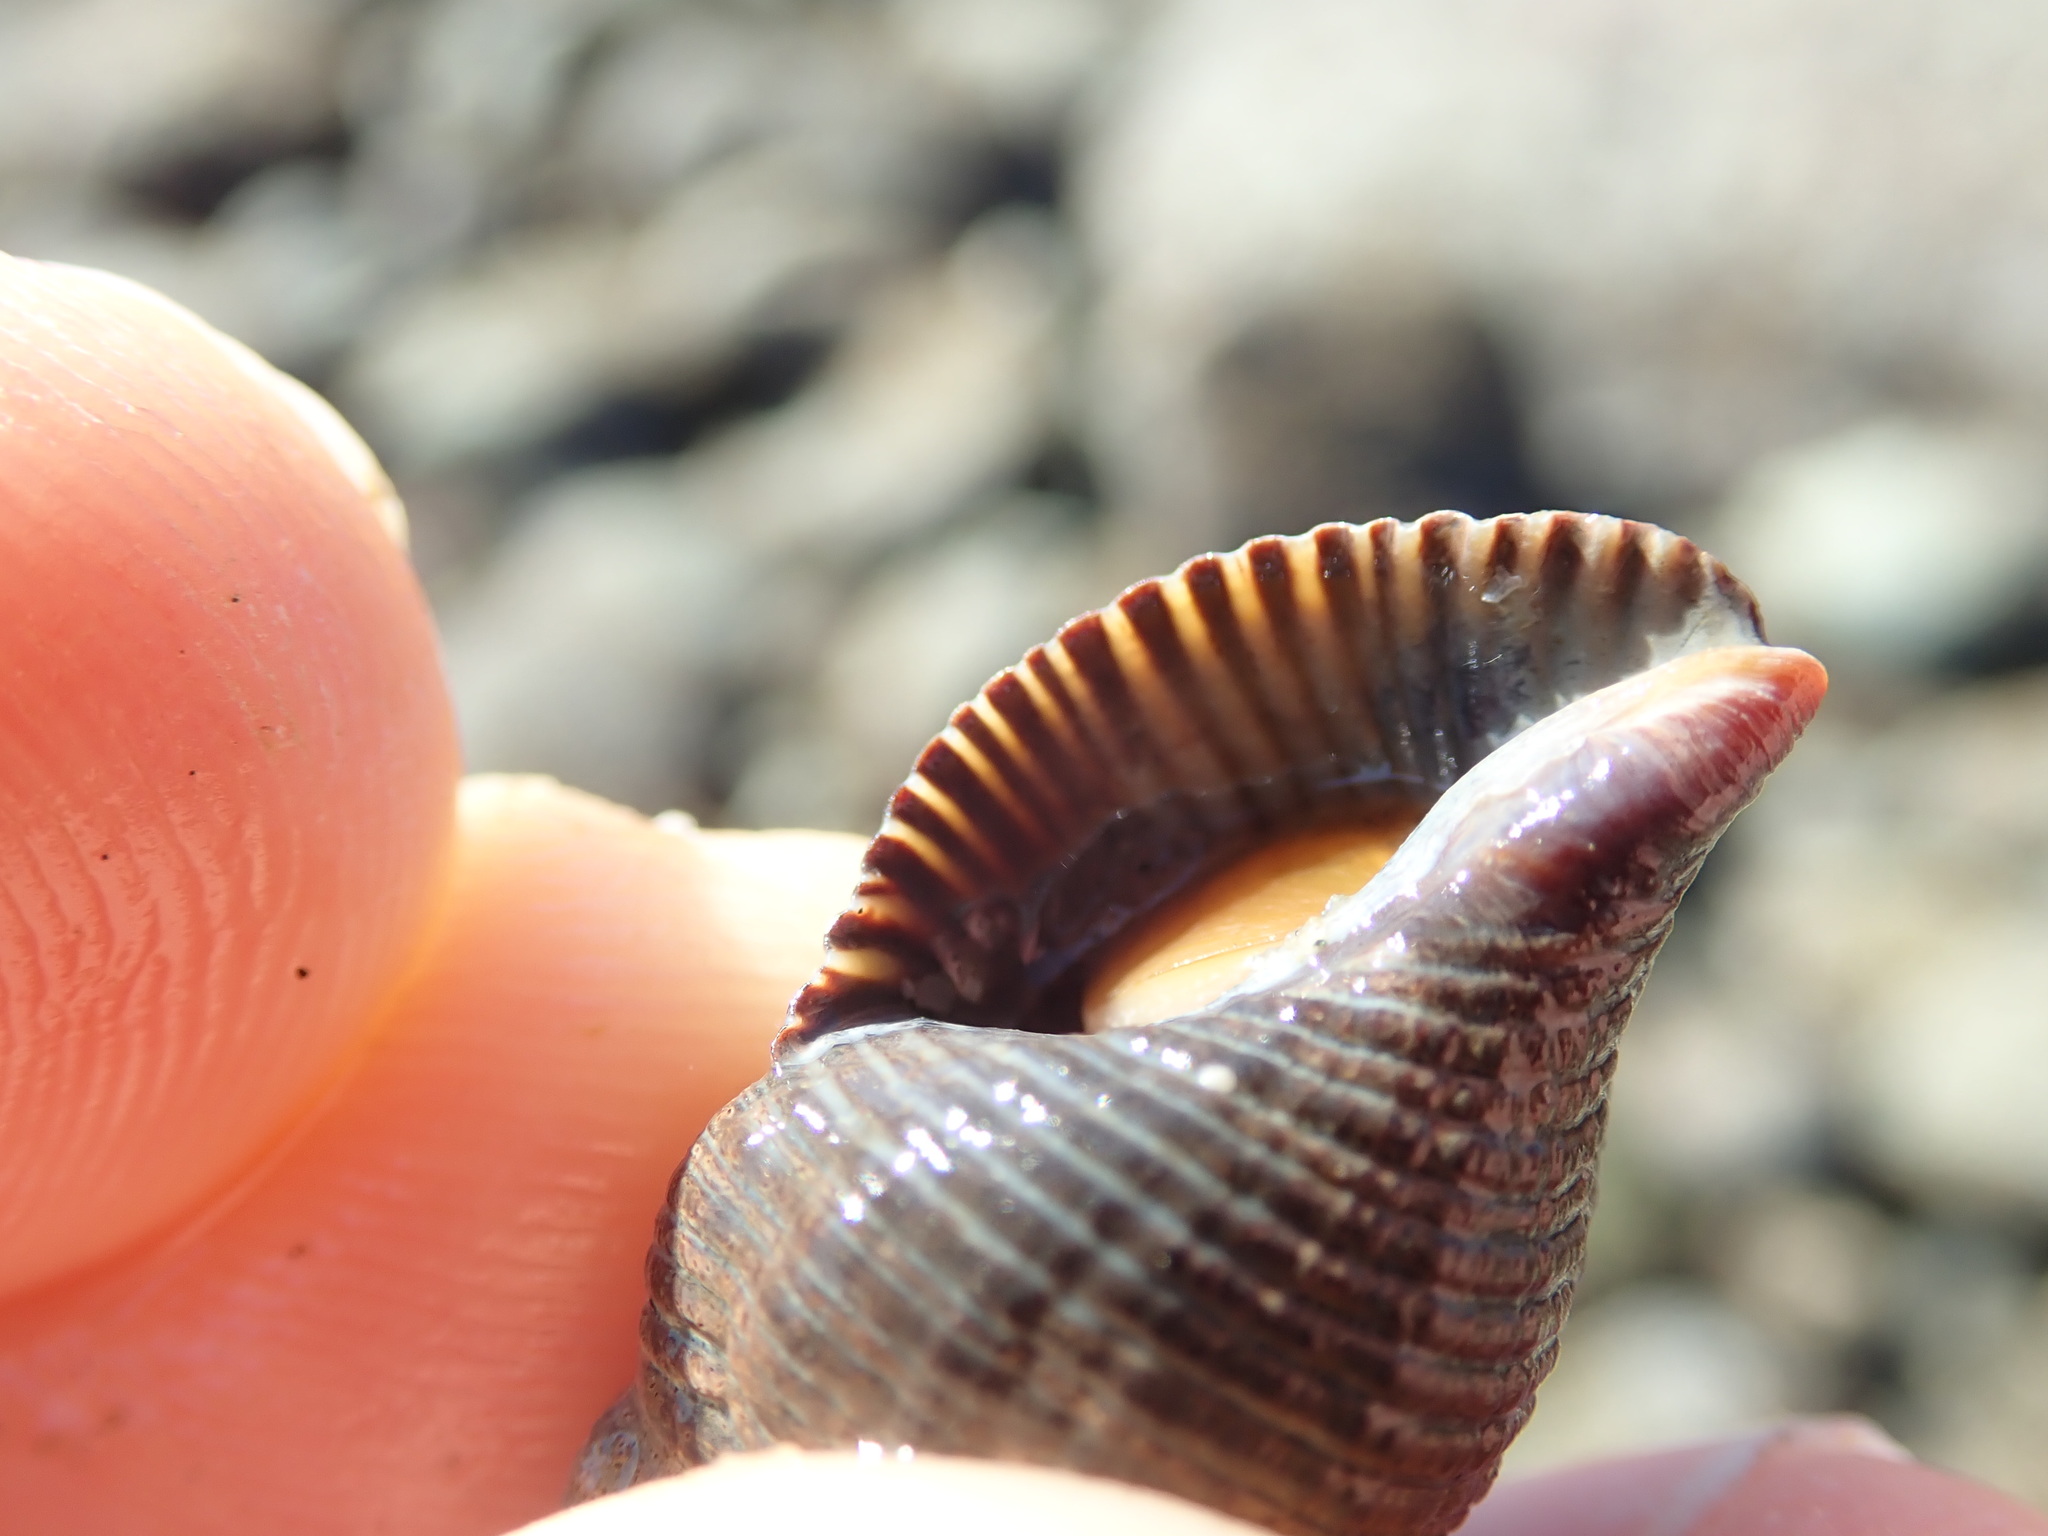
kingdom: Animalia
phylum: Mollusca
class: Gastropoda
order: Neogastropoda
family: Tudiclidae
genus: Lirabuccinum
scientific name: Lirabuccinum dirum
